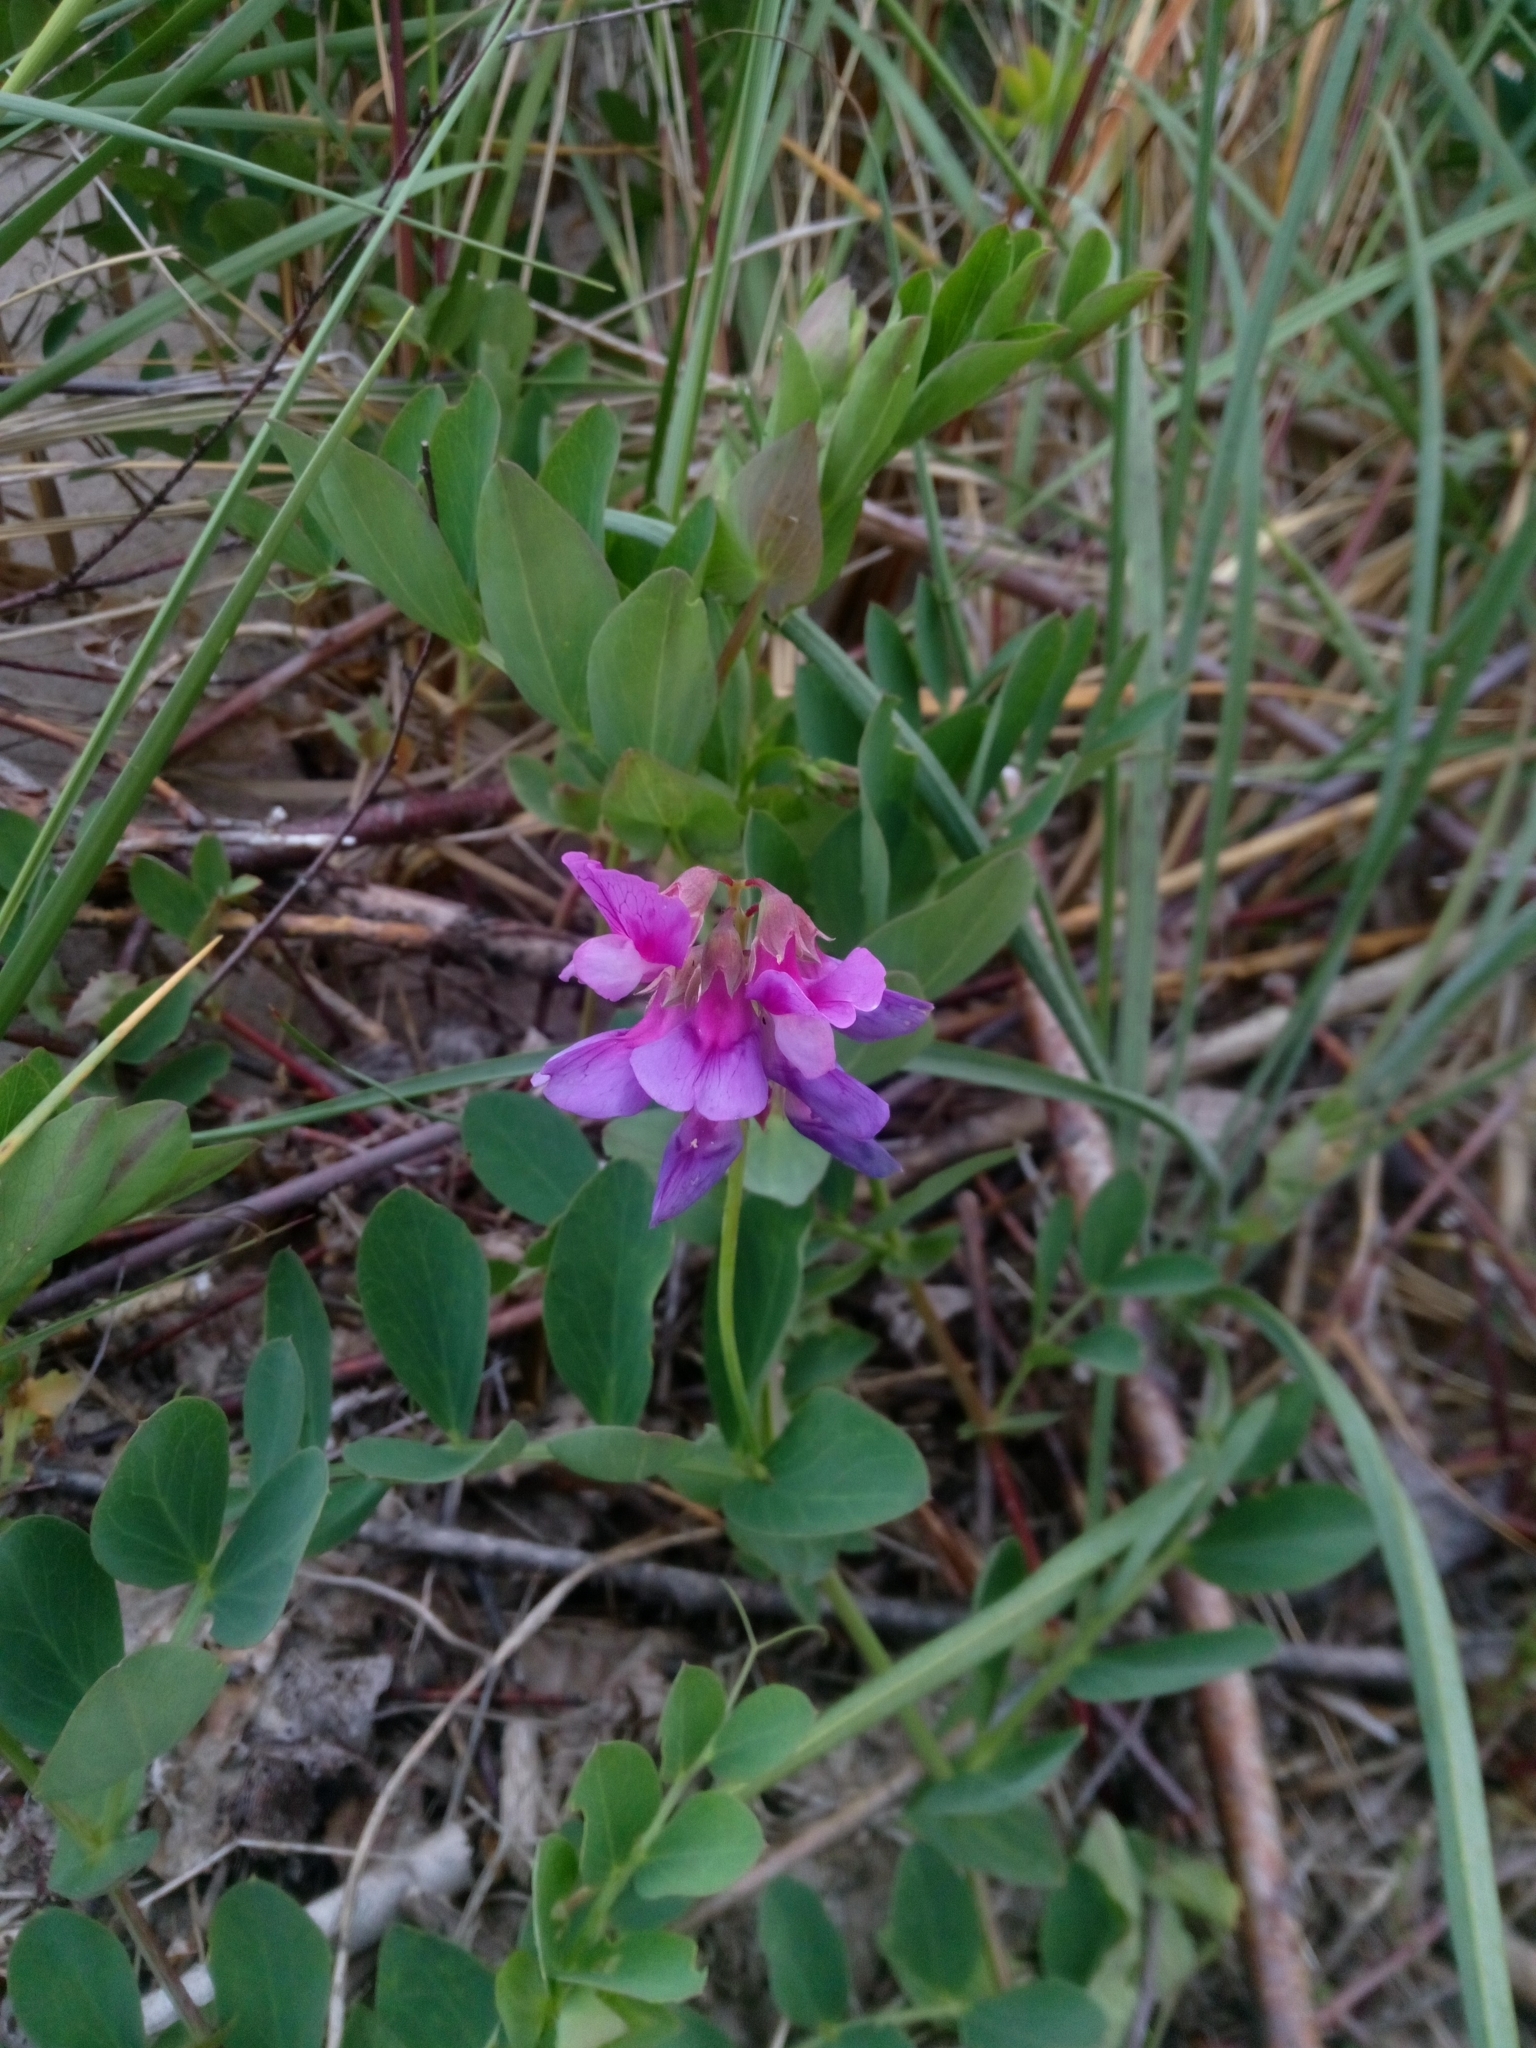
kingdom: Plantae
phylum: Tracheophyta
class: Magnoliopsida
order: Fabales
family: Fabaceae
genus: Lathyrus
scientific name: Lathyrus japonicus
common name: Sea pea
